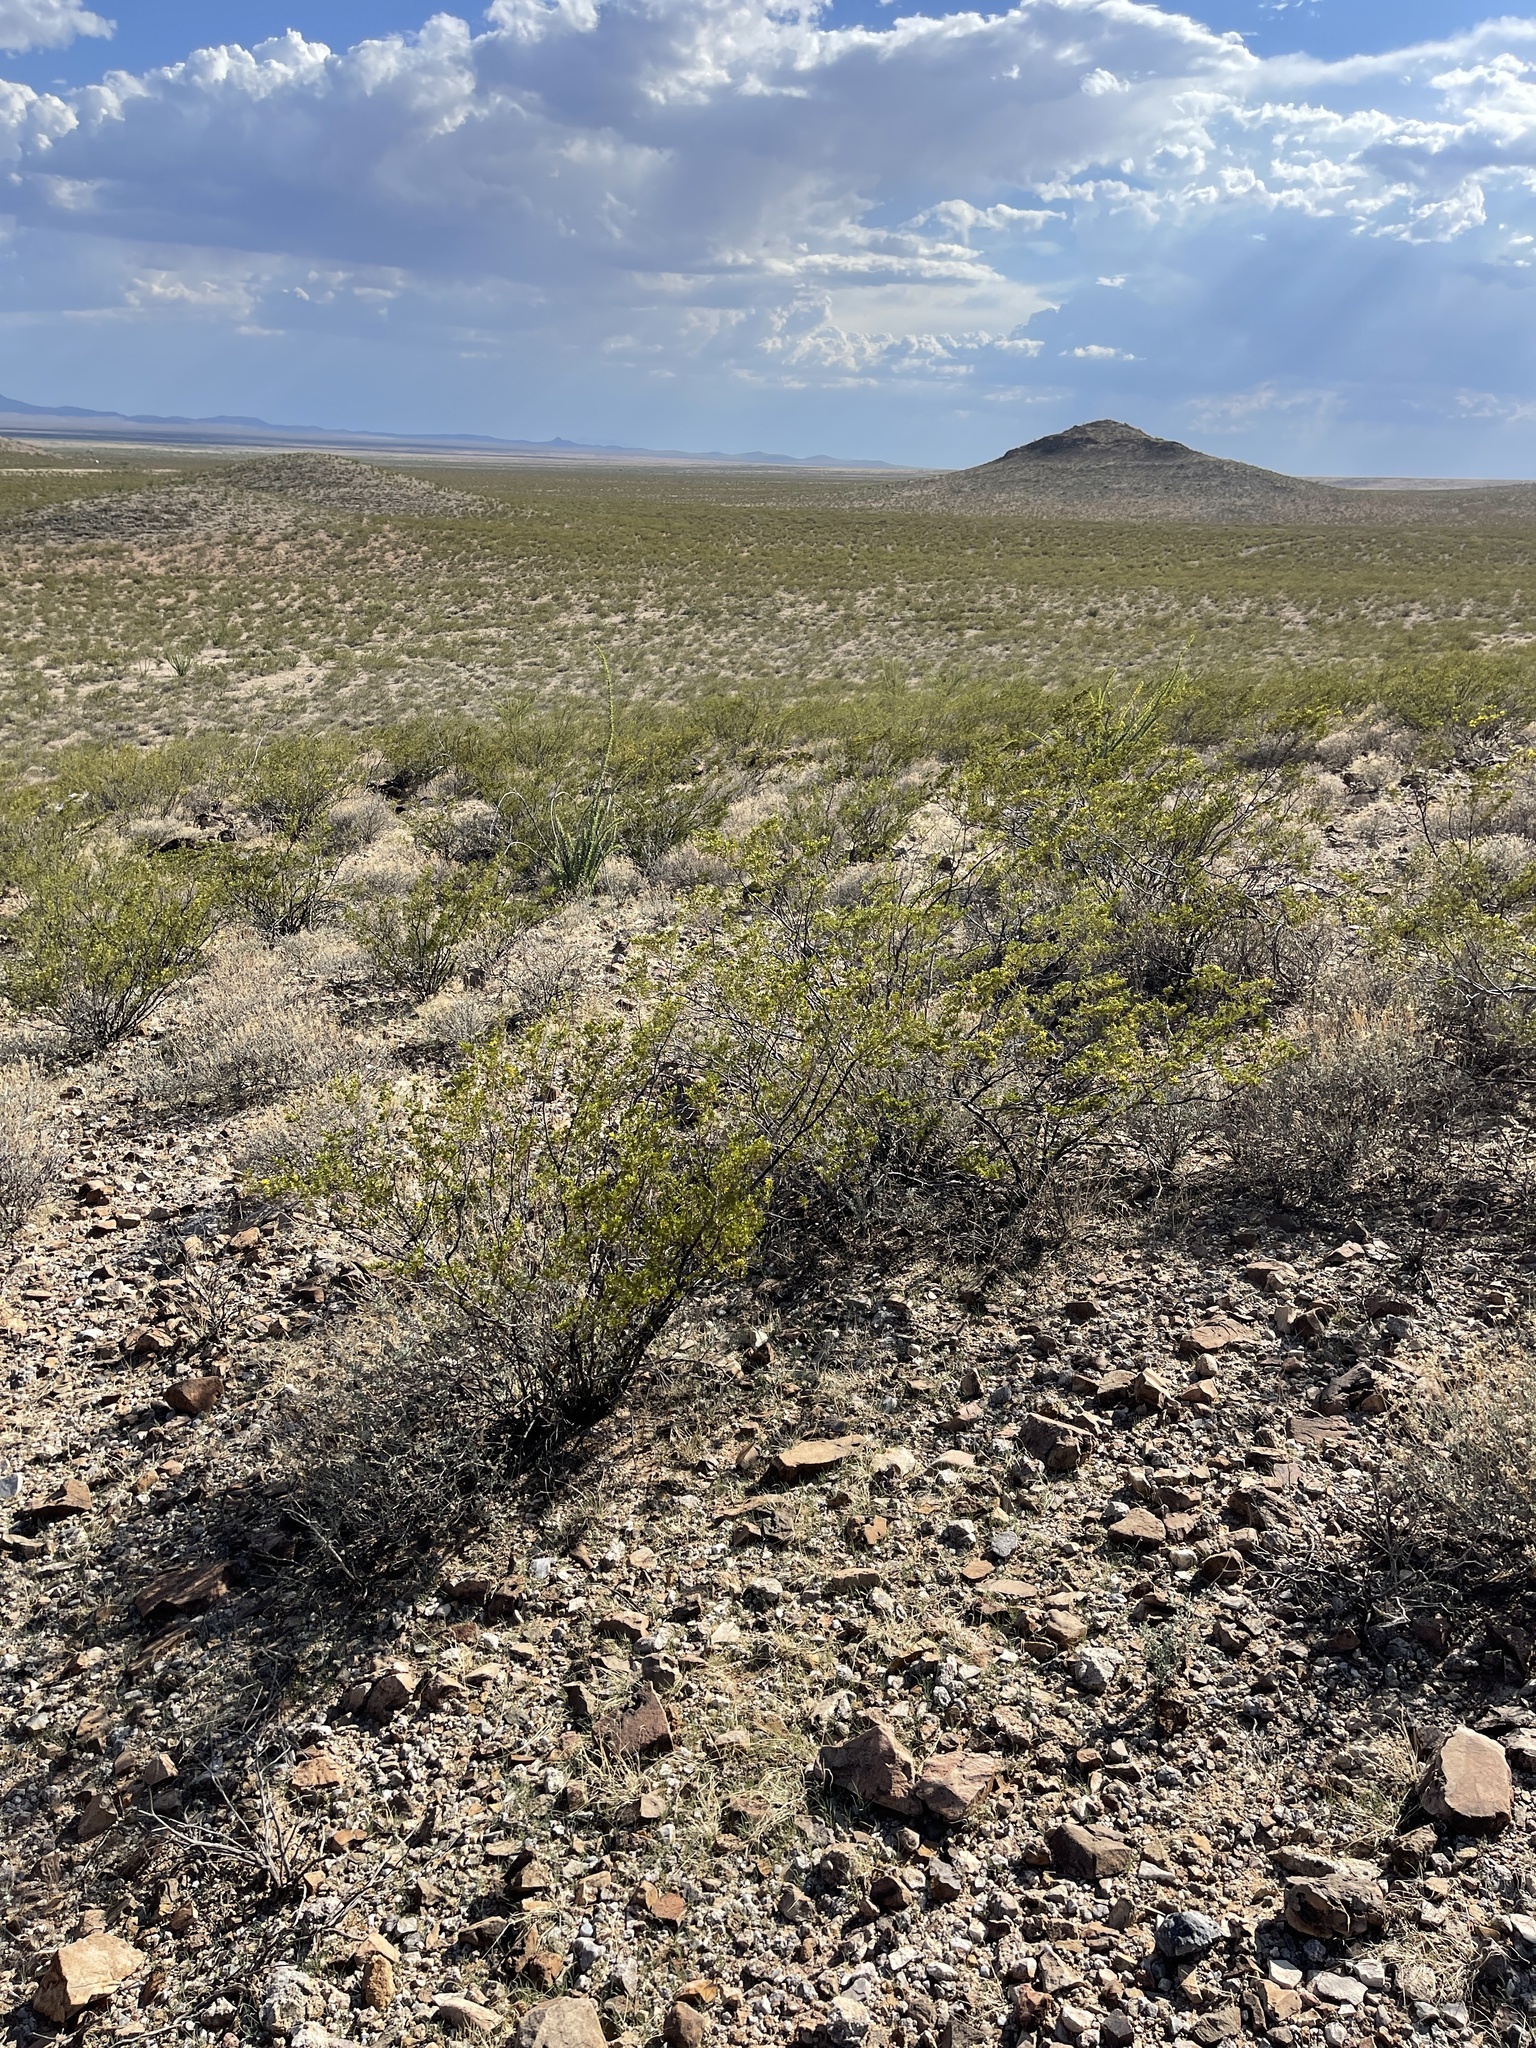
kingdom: Plantae
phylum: Tracheophyta
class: Magnoliopsida
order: Zygophyllales
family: Zygophyllaceae
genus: Larrea
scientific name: Larrea tridentata
